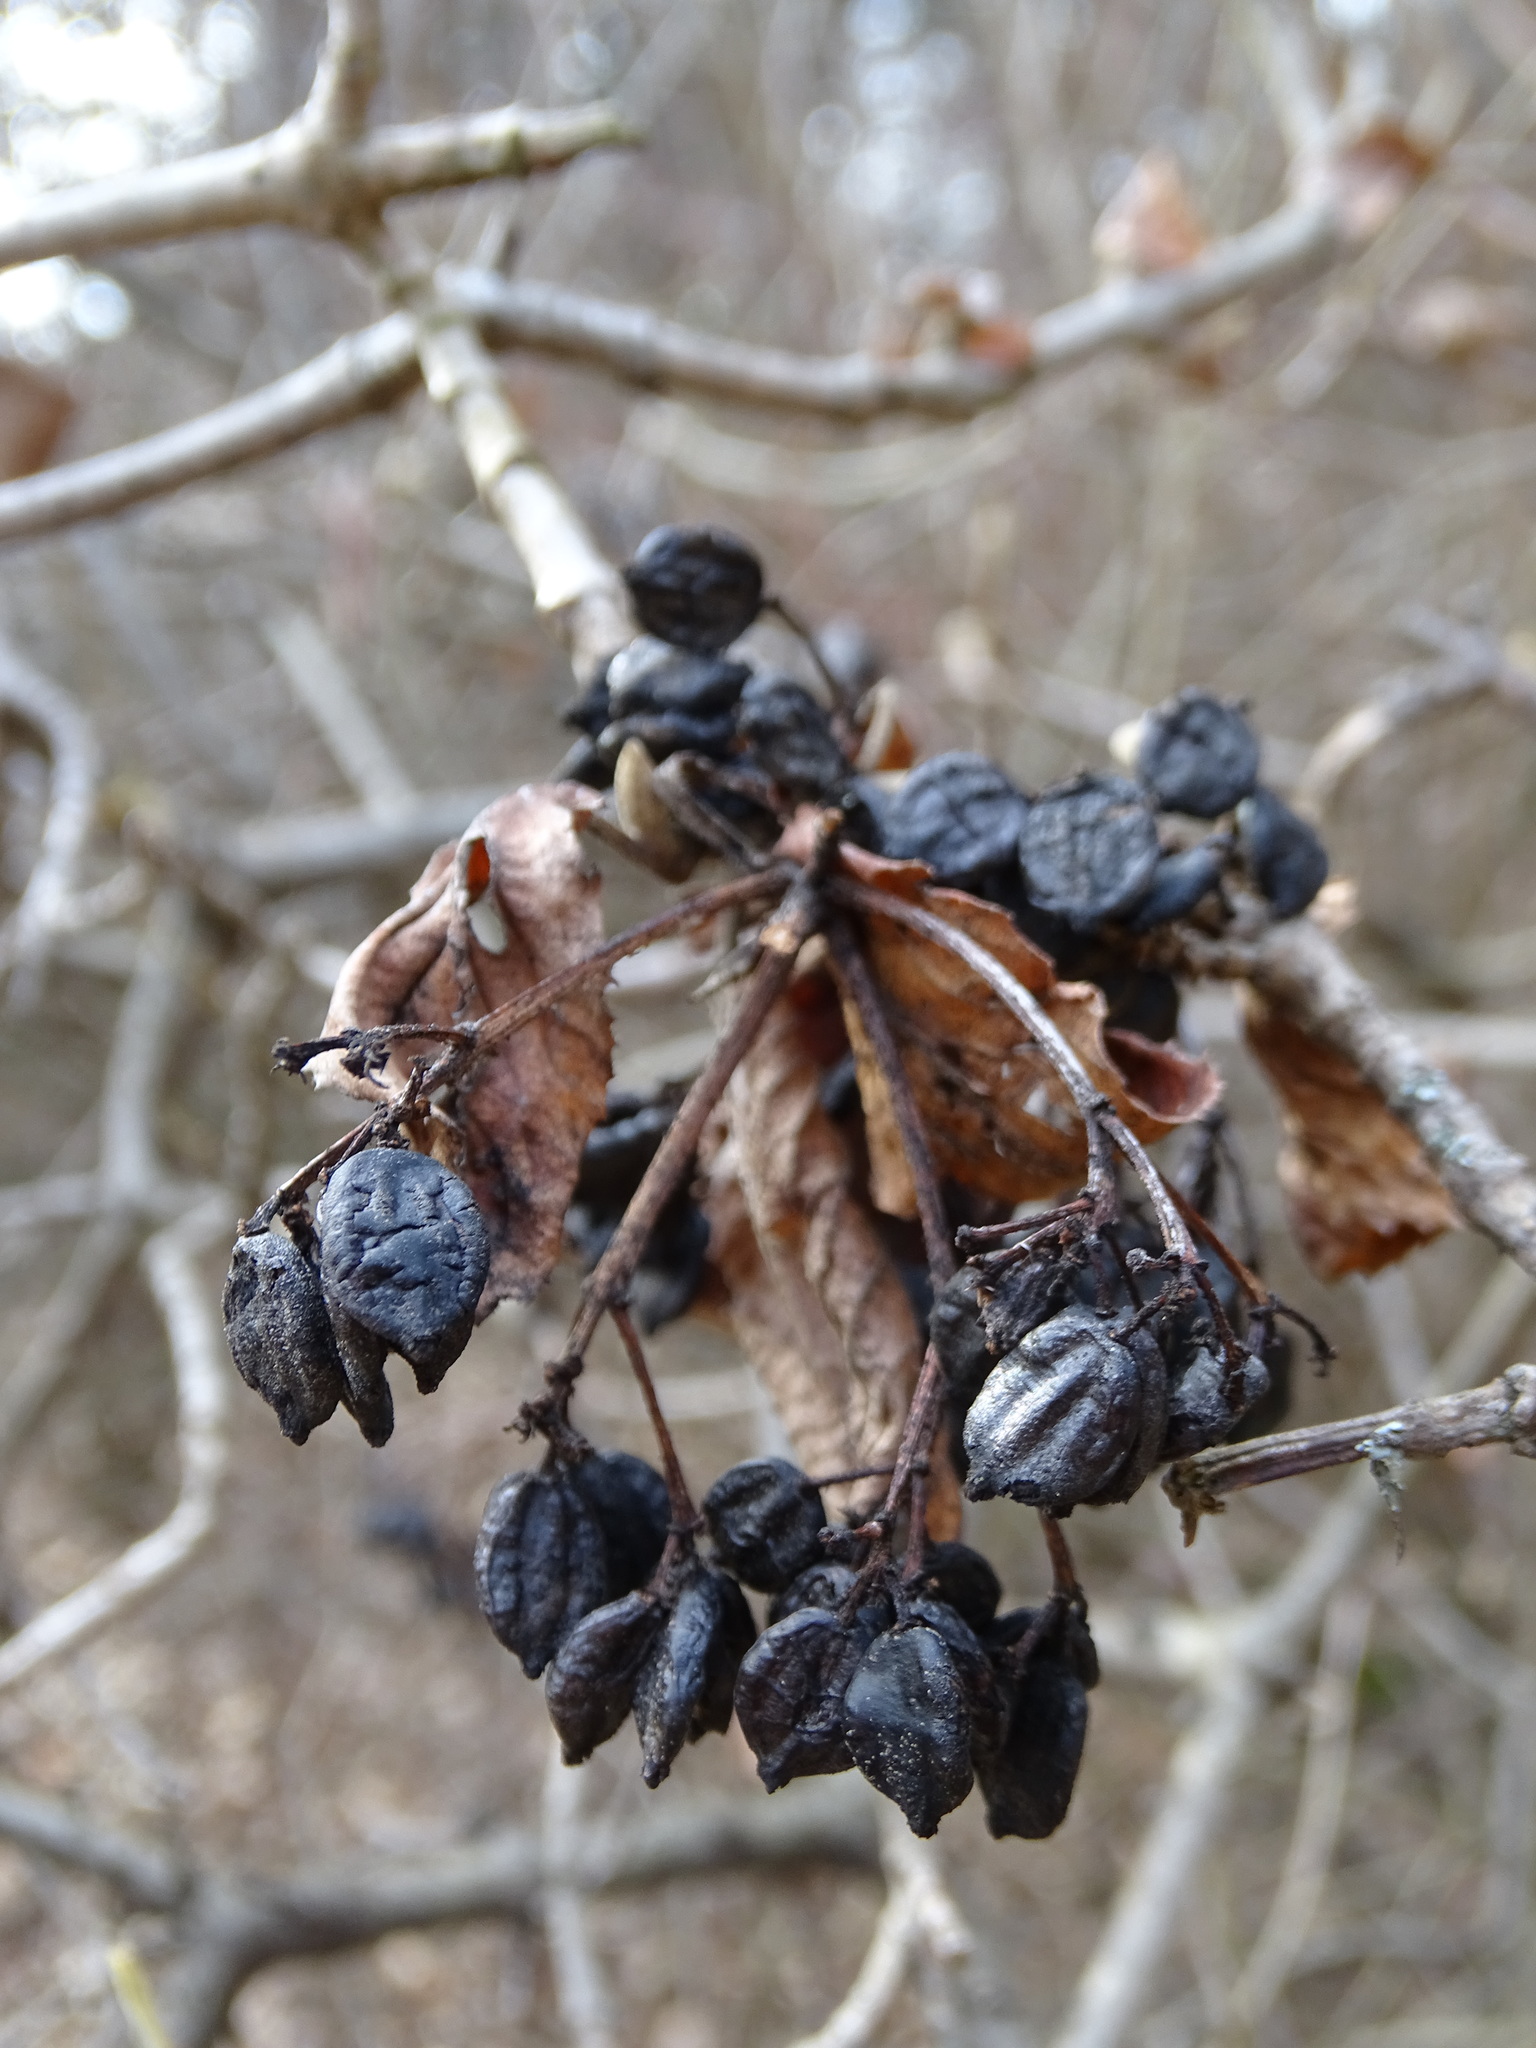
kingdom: Plantae
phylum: Tracheophyta
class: Magnoliopsida
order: Dipsacales
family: Viburnaceae
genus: Viburnum
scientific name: Viburnum lantana
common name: Wayfaring tree
